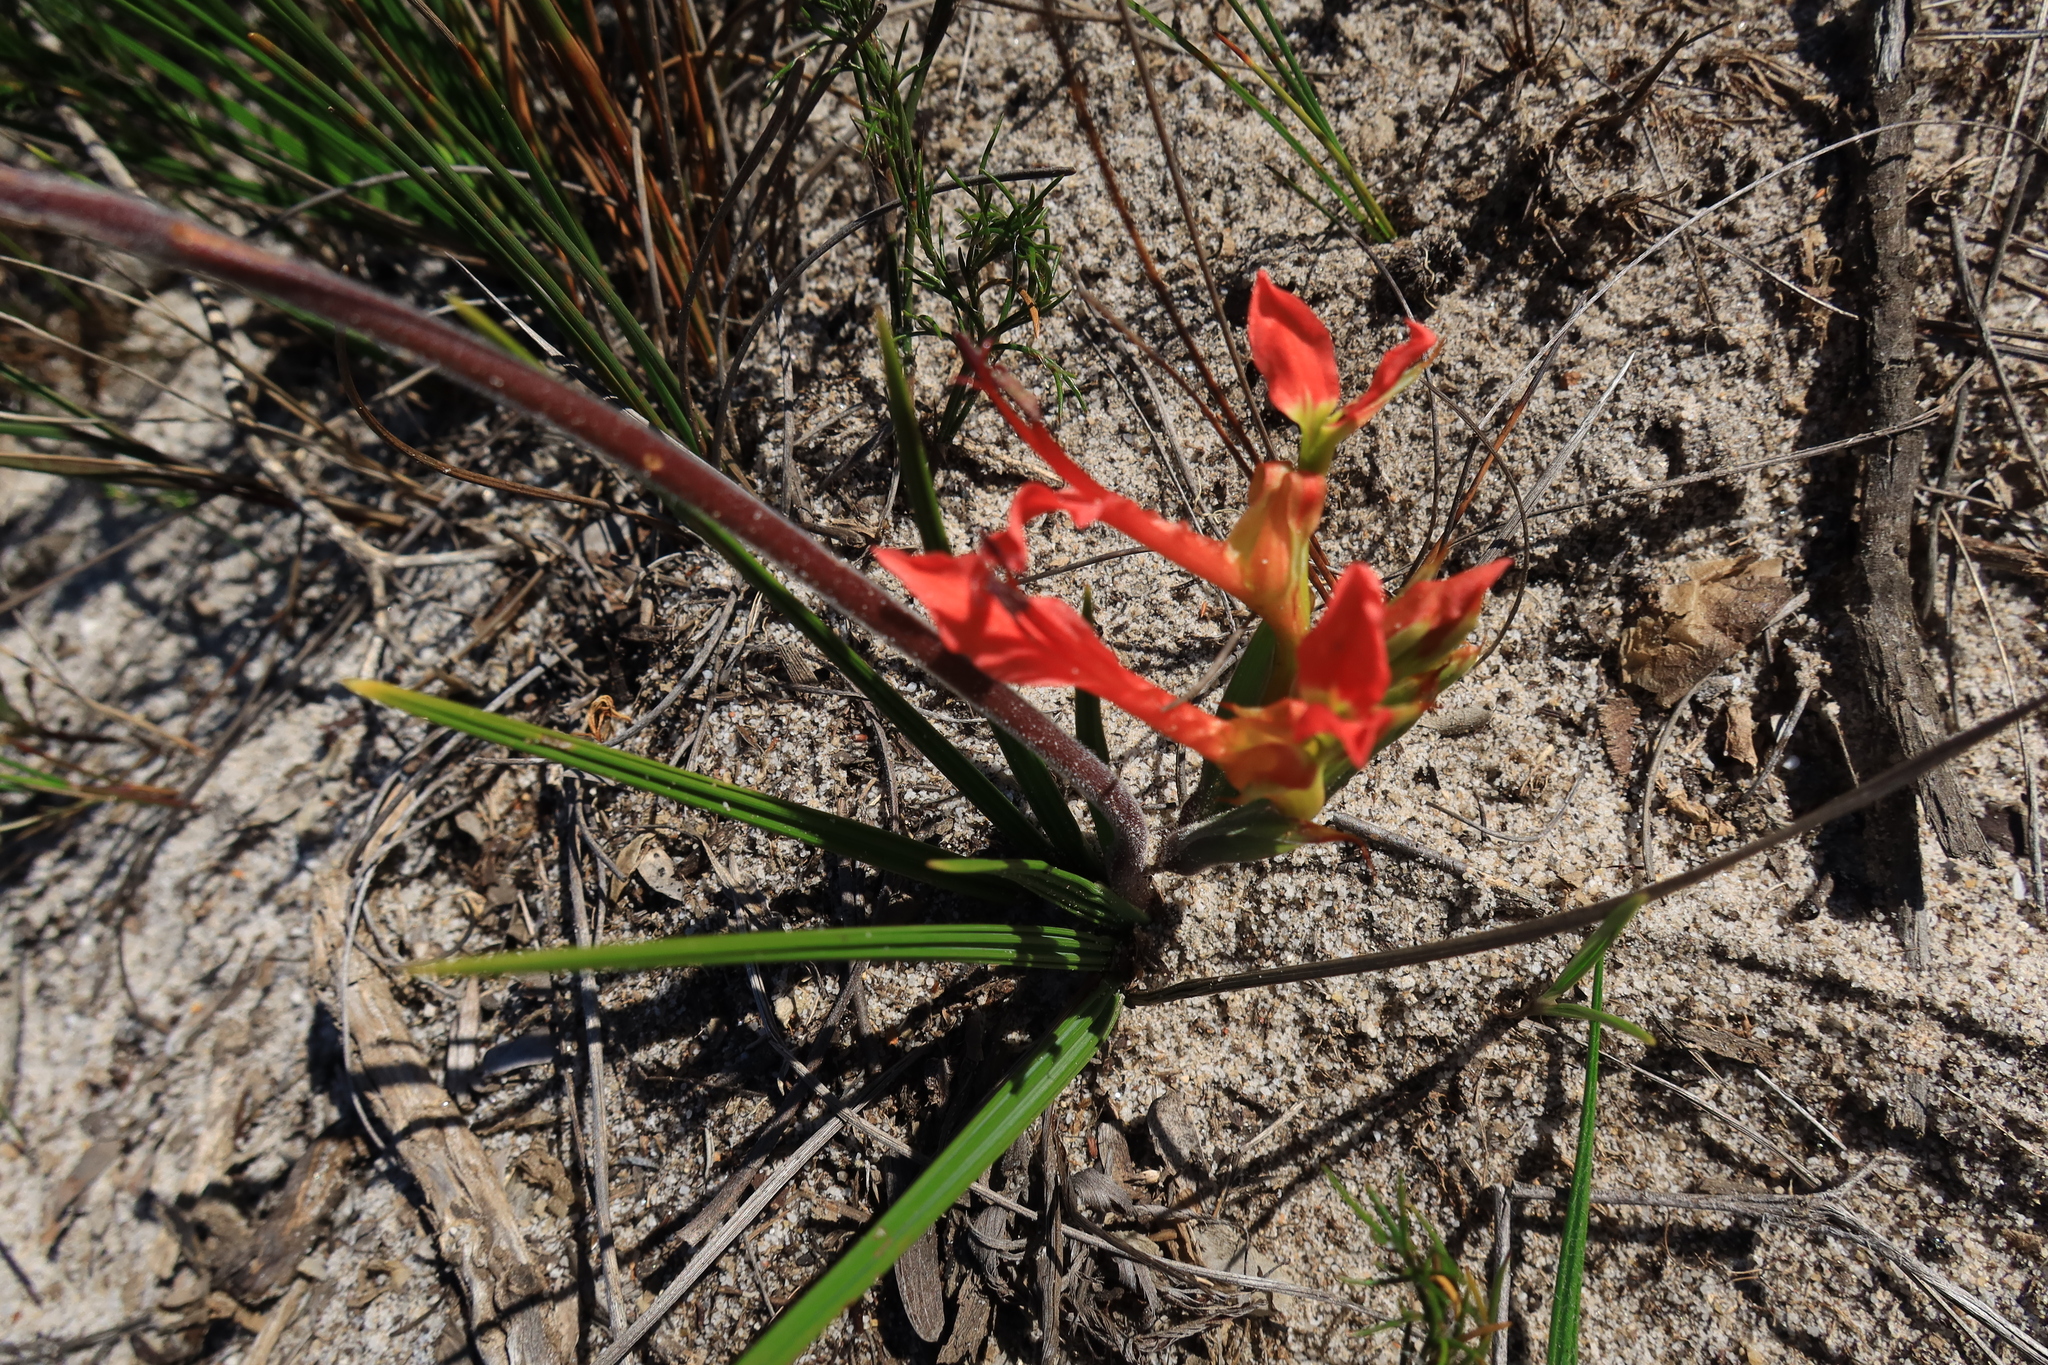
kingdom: Plantae
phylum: Tracheophyta
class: Liliopsida
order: Asparagales
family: Iridaceae
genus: Babiana
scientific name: Babiana ringens
